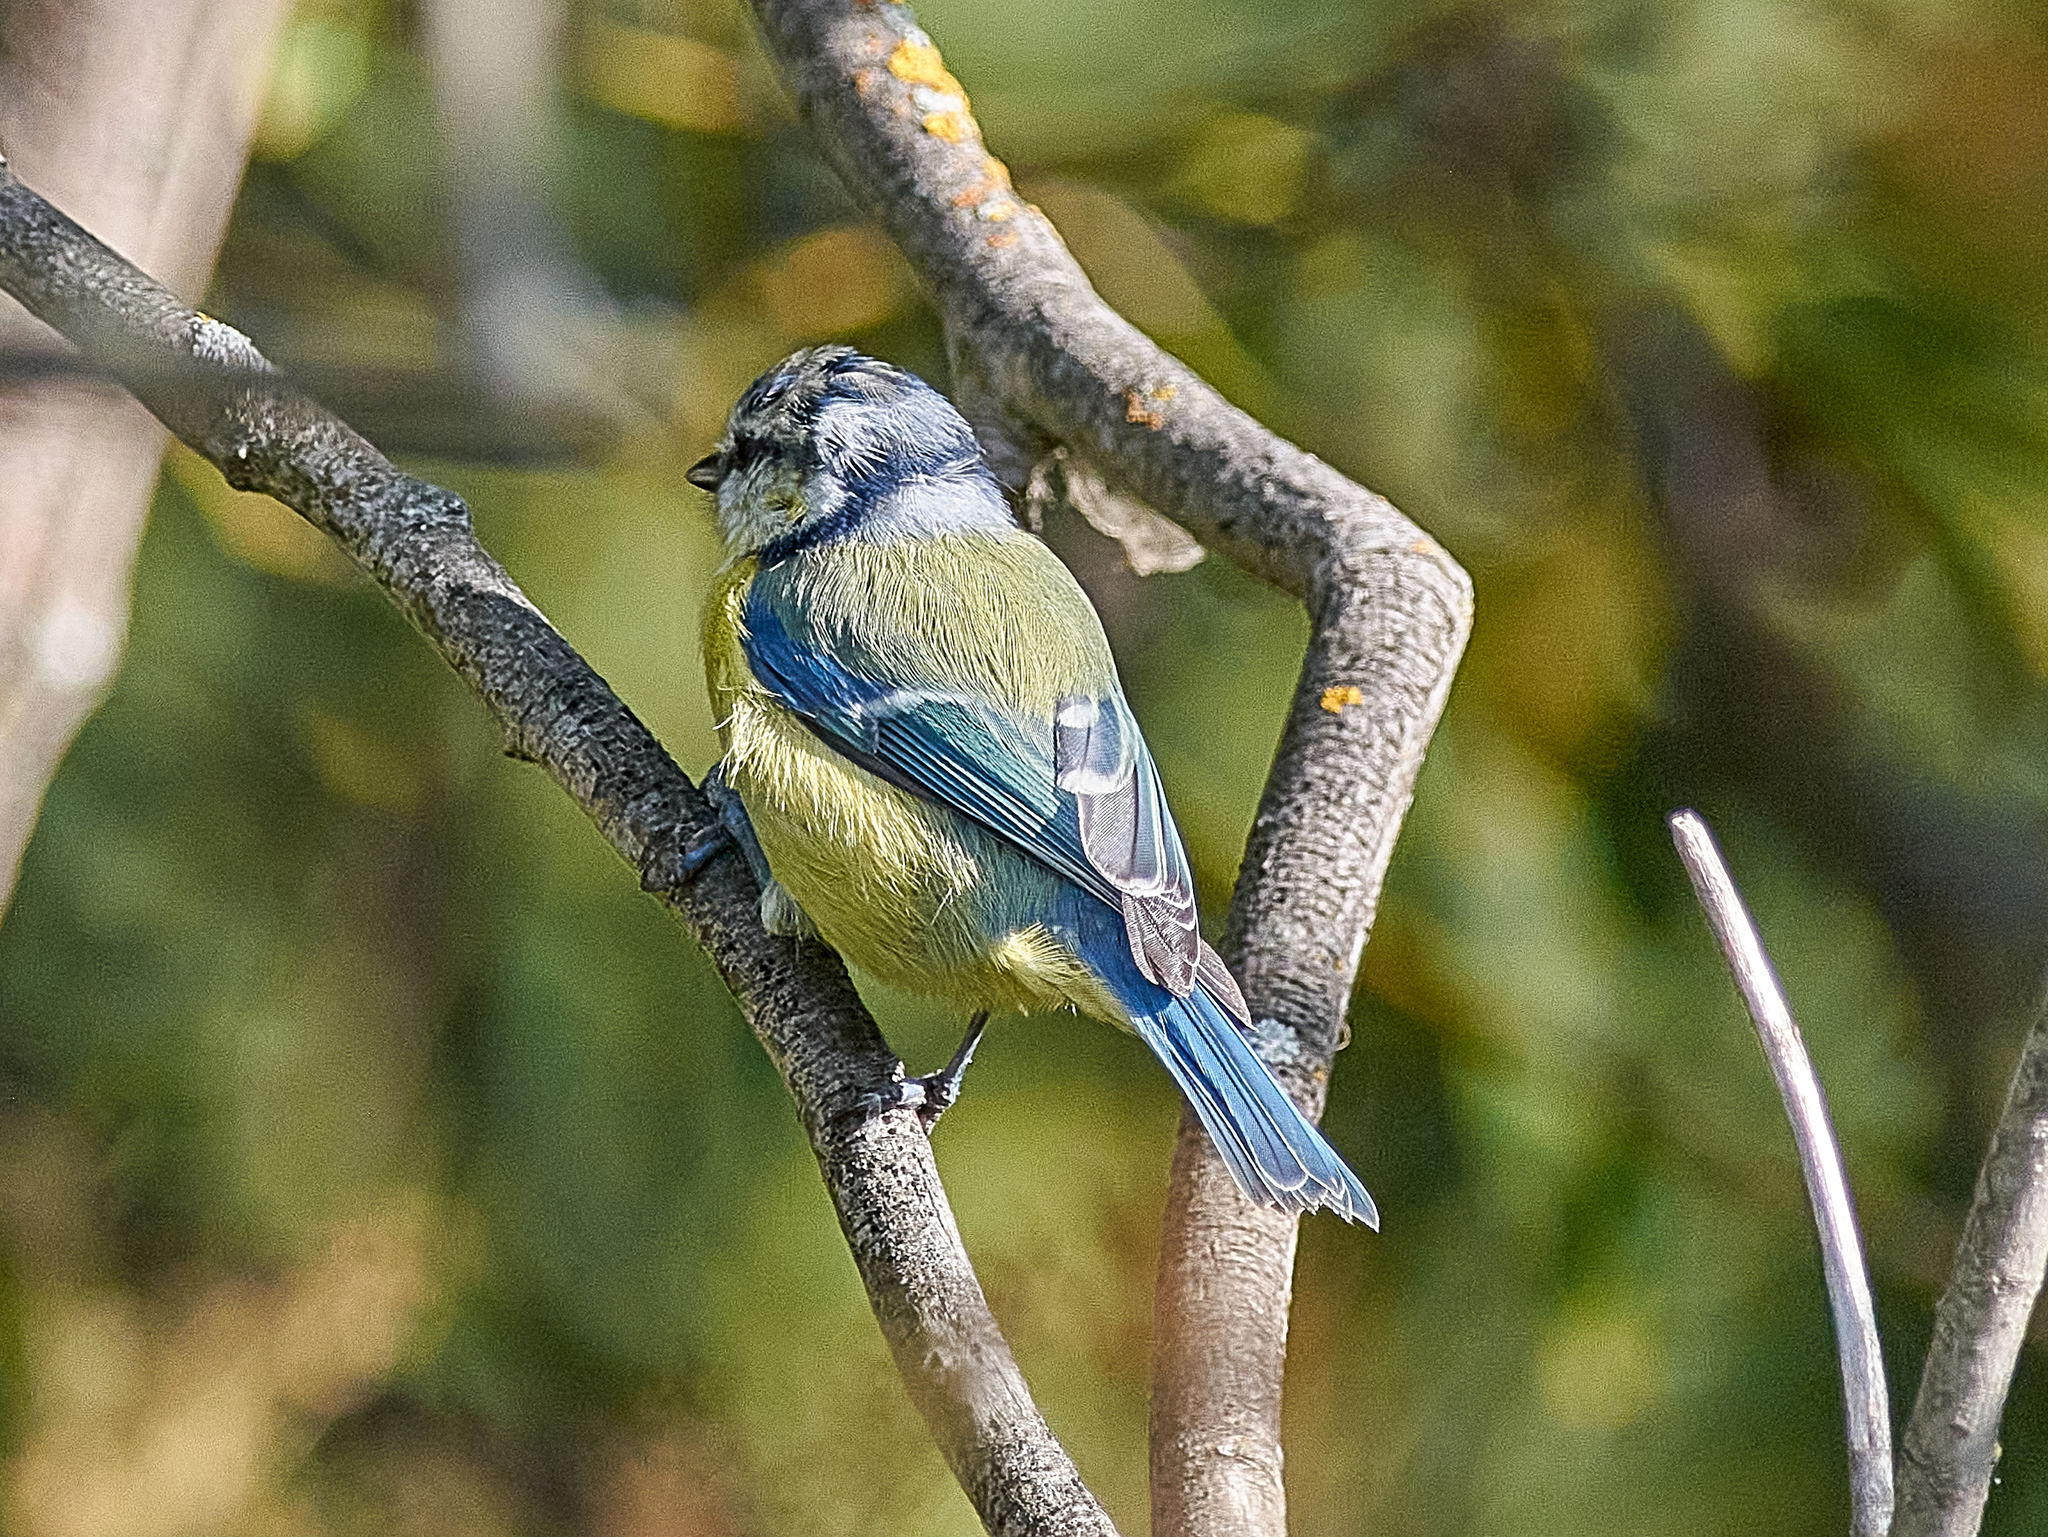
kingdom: Animalia
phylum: Chordata
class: Aves
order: Passeriformes
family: Paridae
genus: Cyanistes
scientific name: Cyanistes caeruleus
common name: Eurasian blue tit
